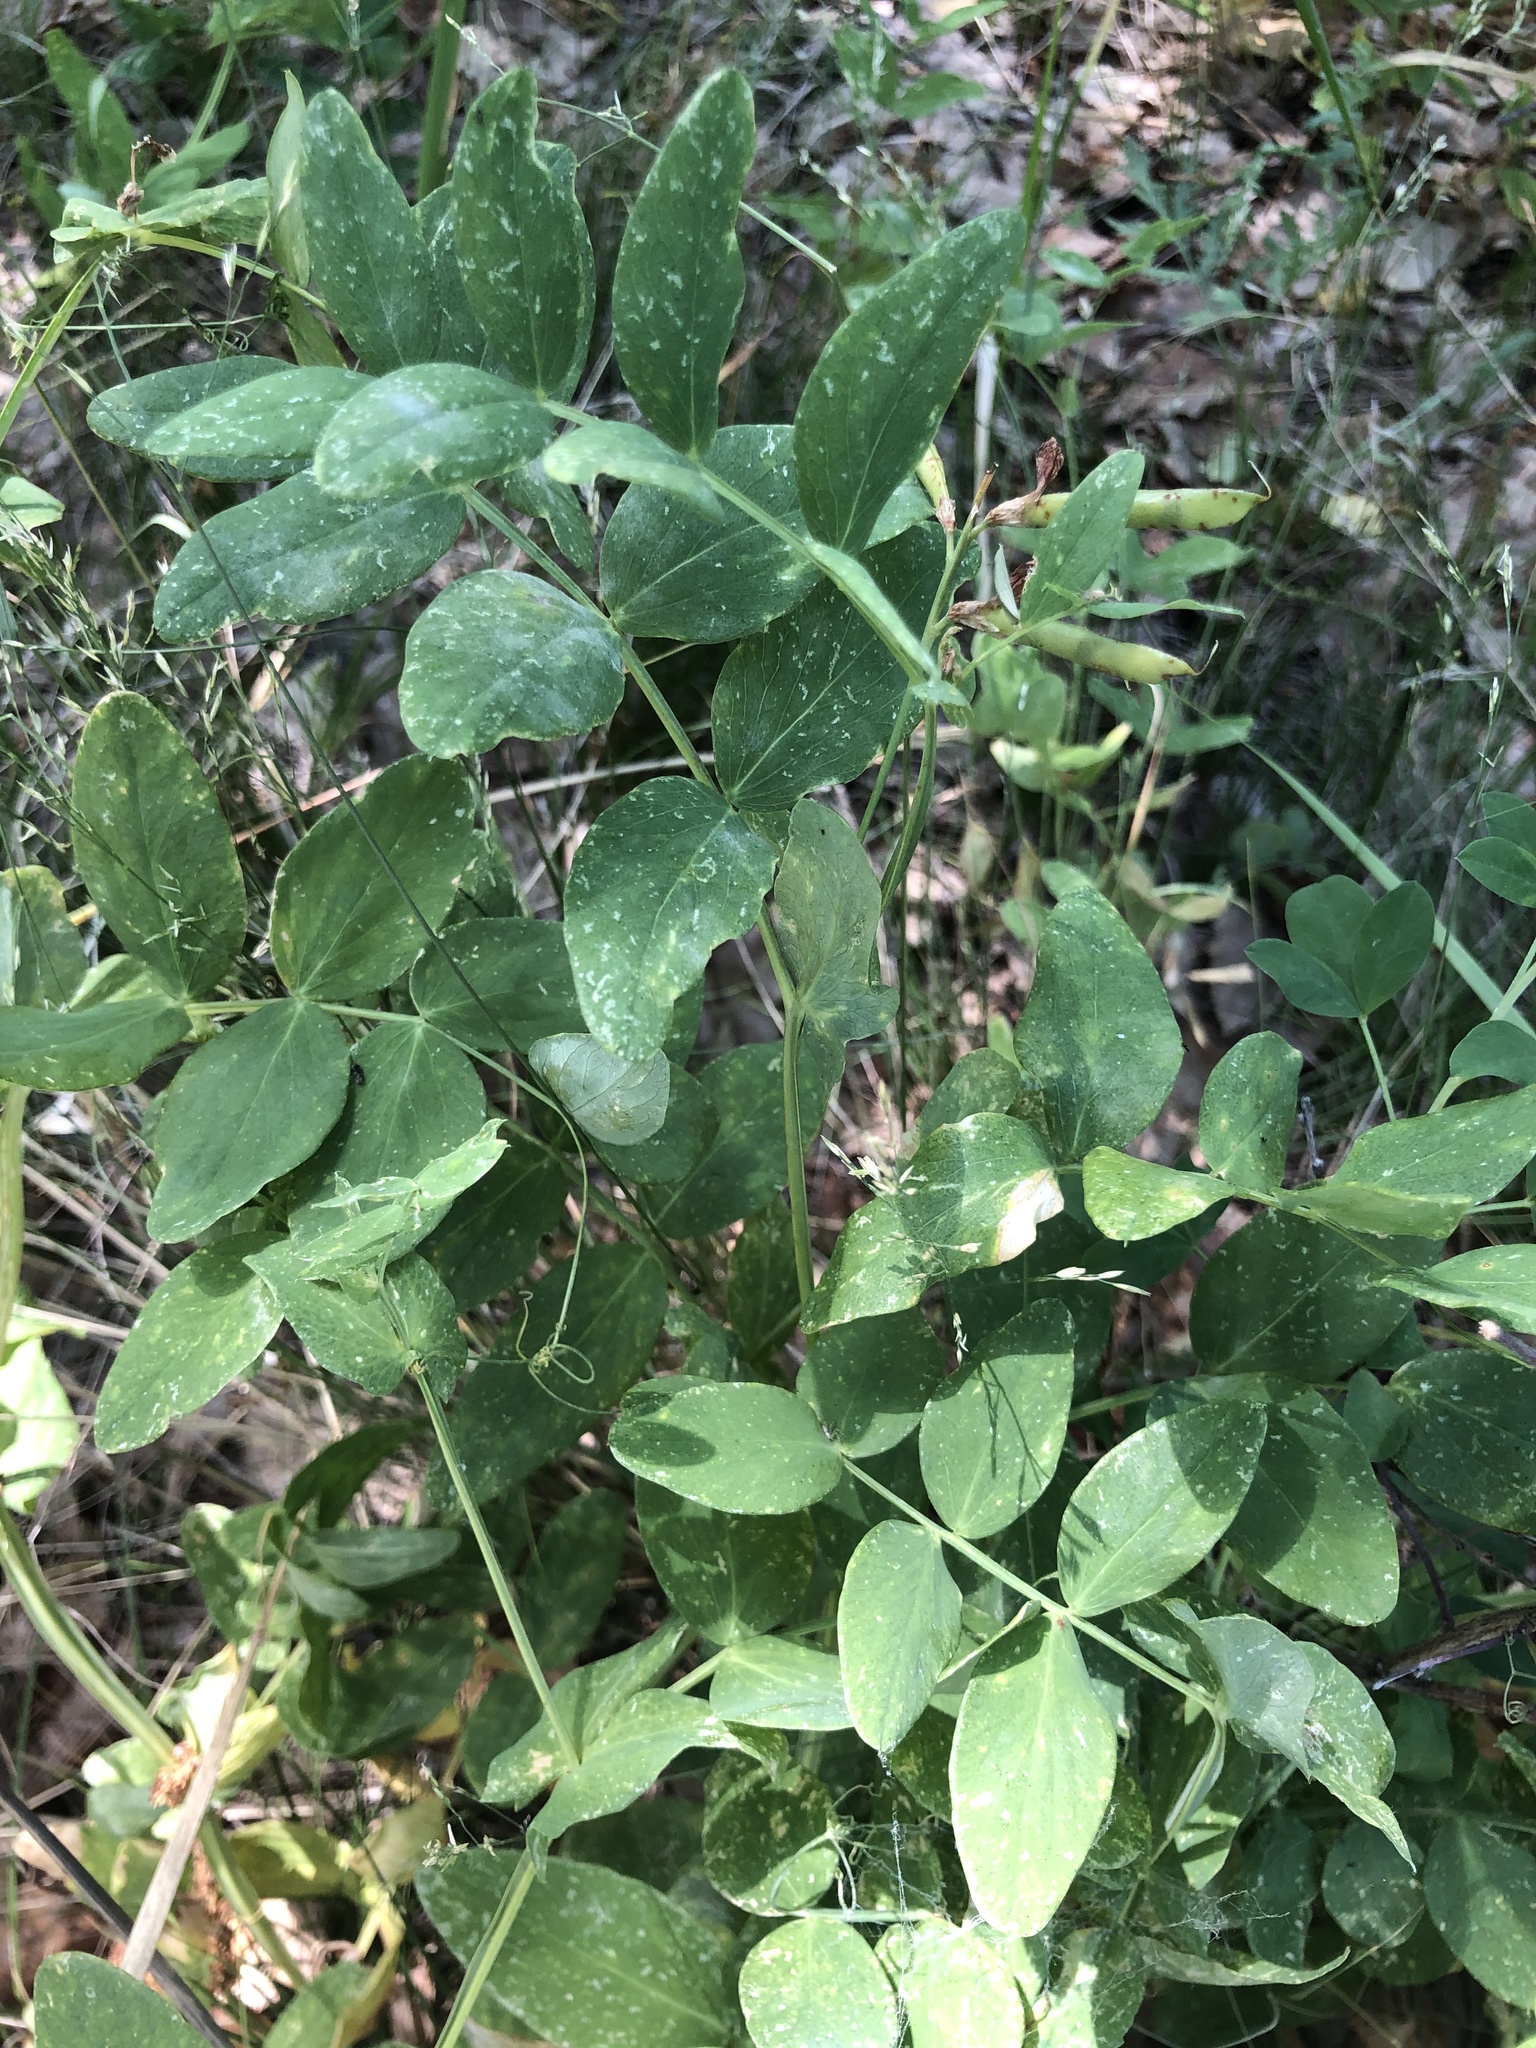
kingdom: Plantae
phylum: Tracheophyta
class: Magnoliopsida
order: Fabales
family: Fabaceae
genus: Lathyrus
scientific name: Lathyrus pisiformis
